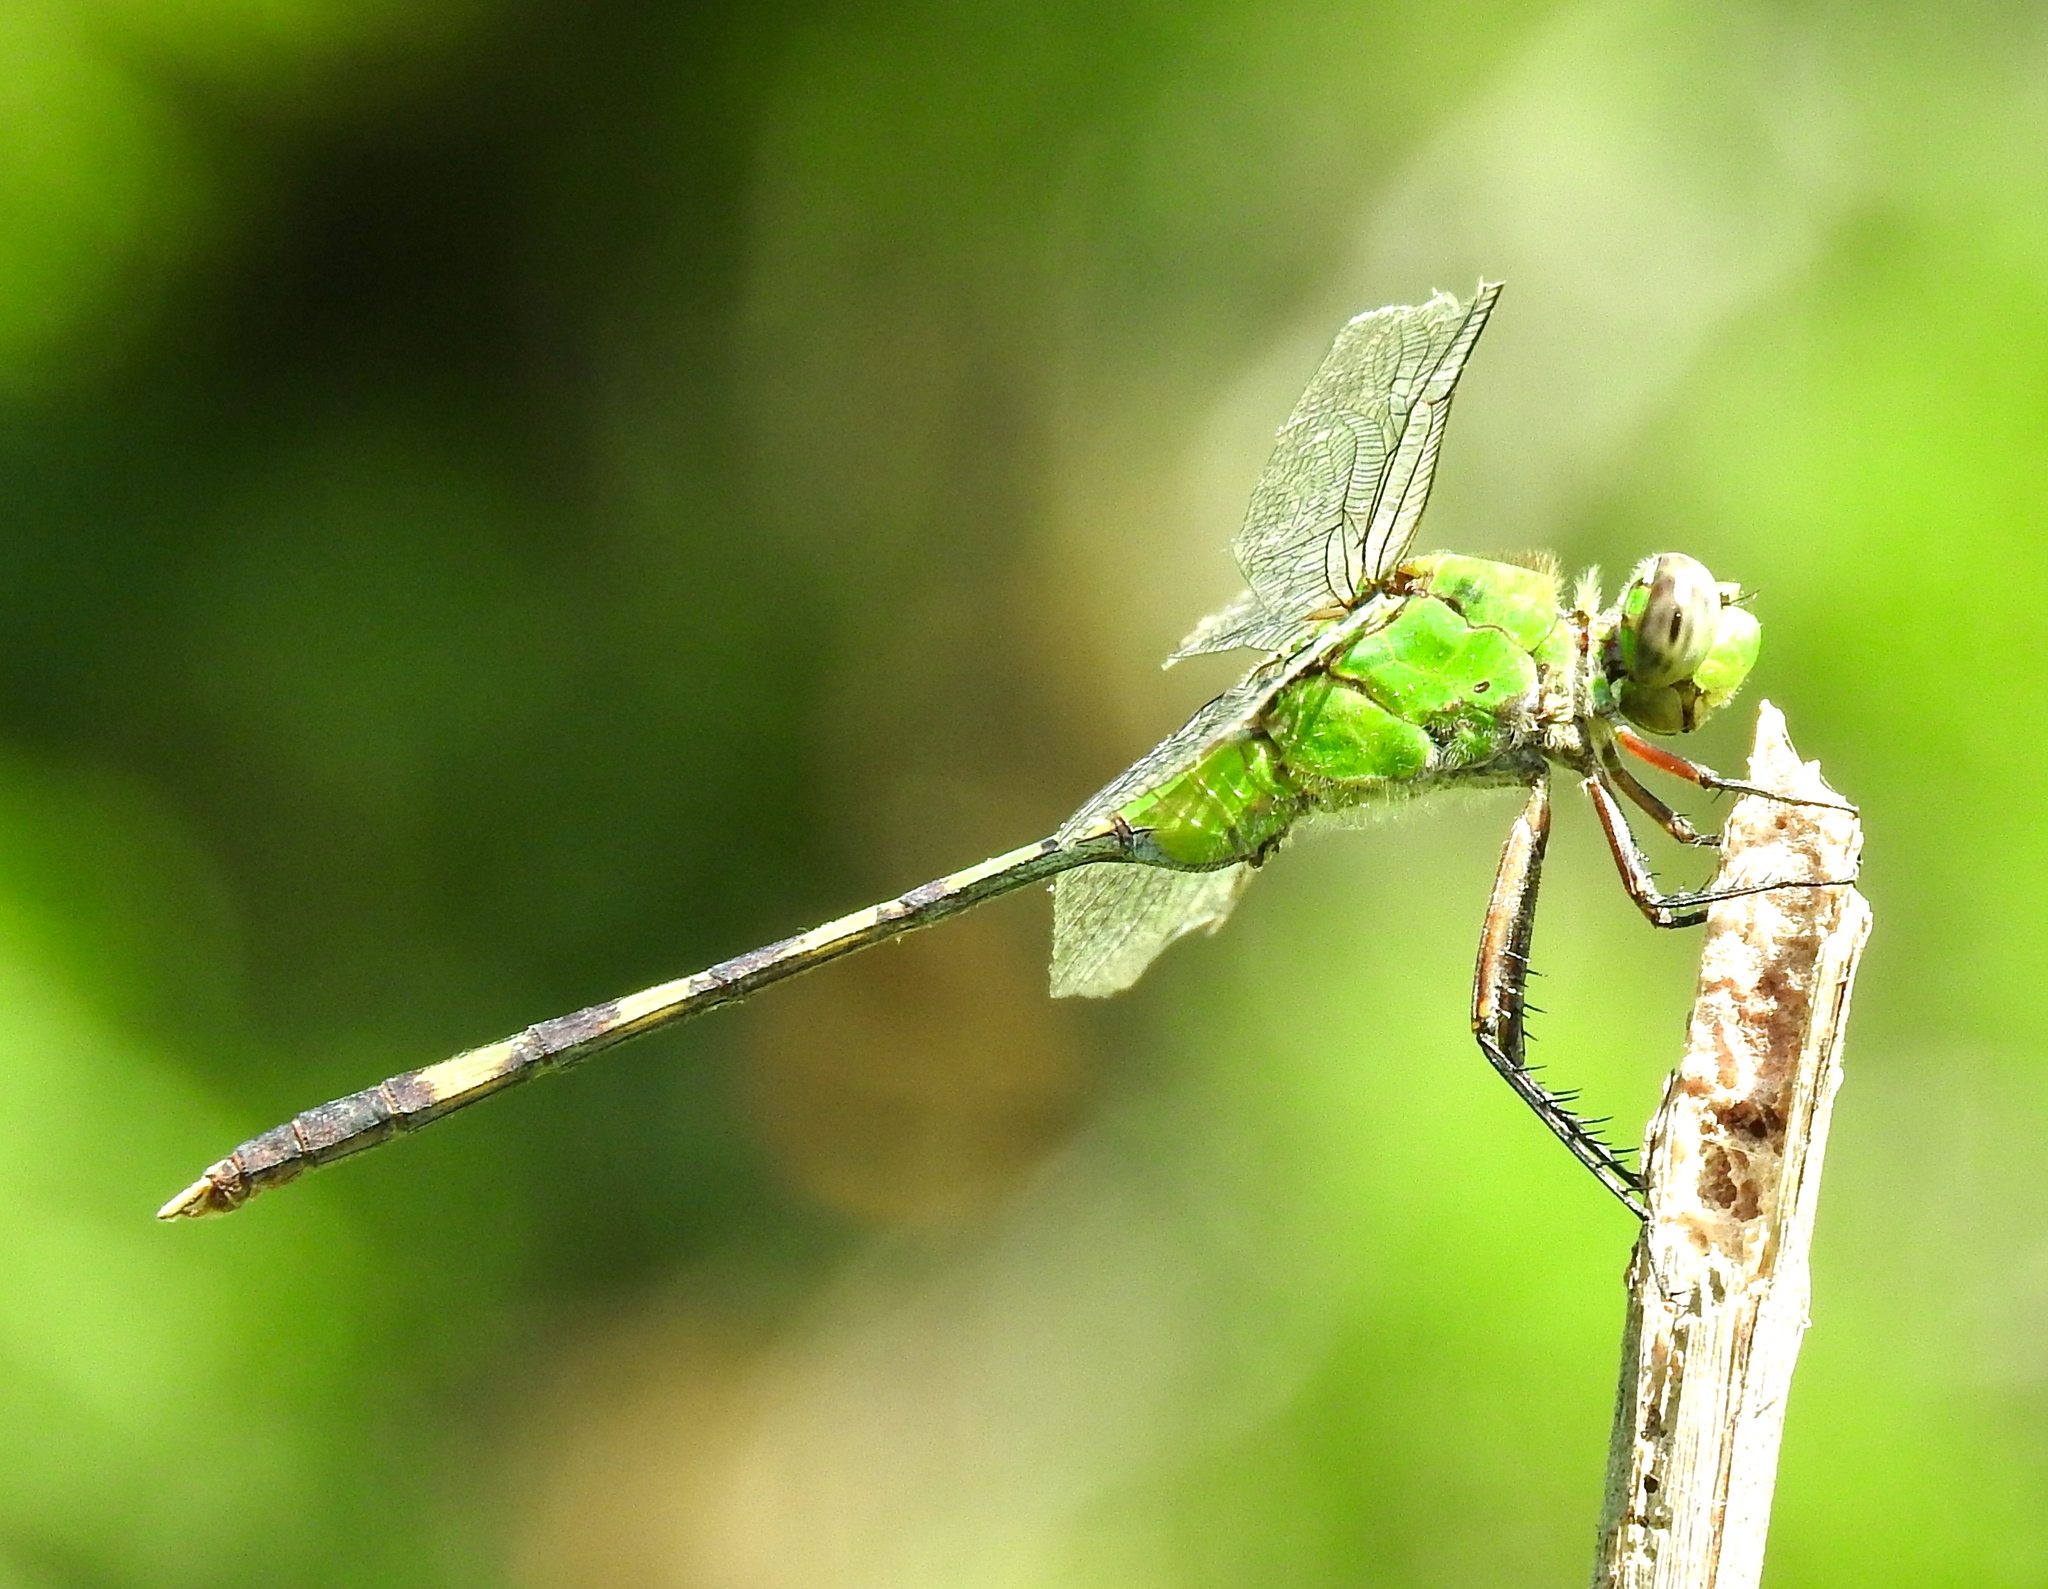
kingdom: Animalia
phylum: Arthropoda
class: Insecta
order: Odonata
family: Libellulidae
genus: Erythemis
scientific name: Erythemis vesiculosa
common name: Great pondhawk
